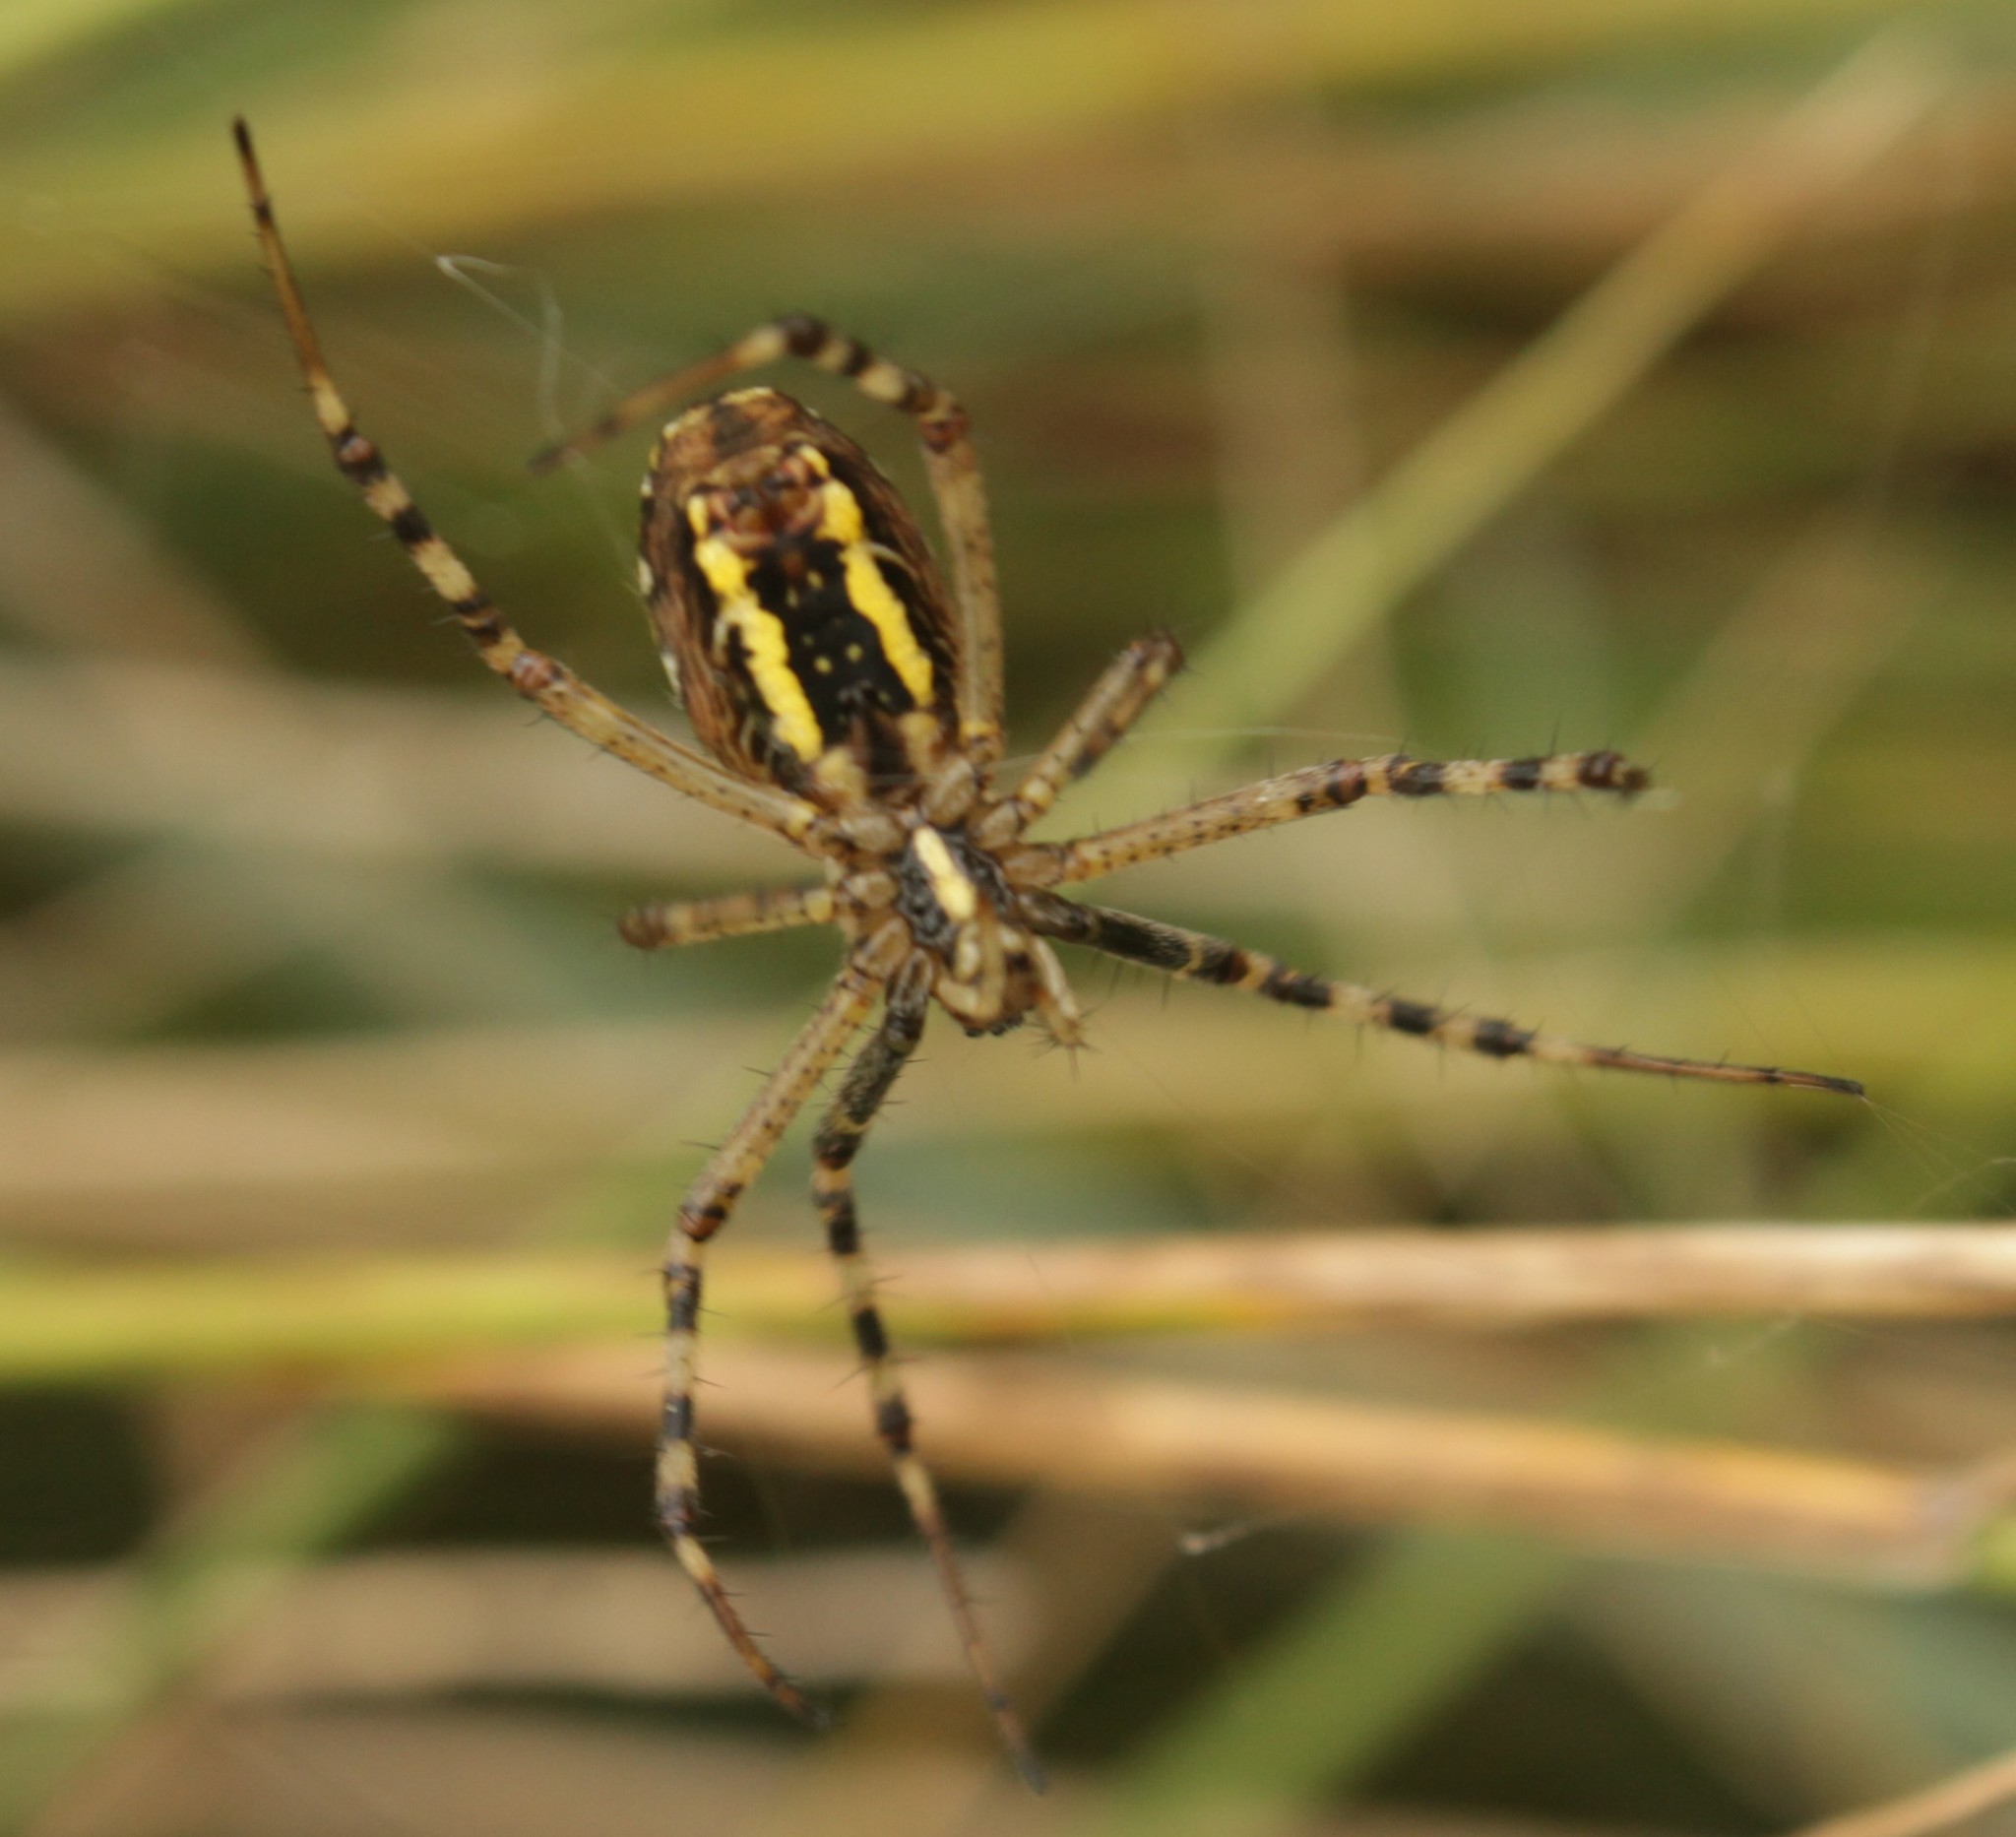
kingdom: Animalia
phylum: Arthropoda
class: Arachnida
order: Araneae
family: Araneidae
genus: Argiope
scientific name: Argiope bruennichi
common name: Wasp spider
